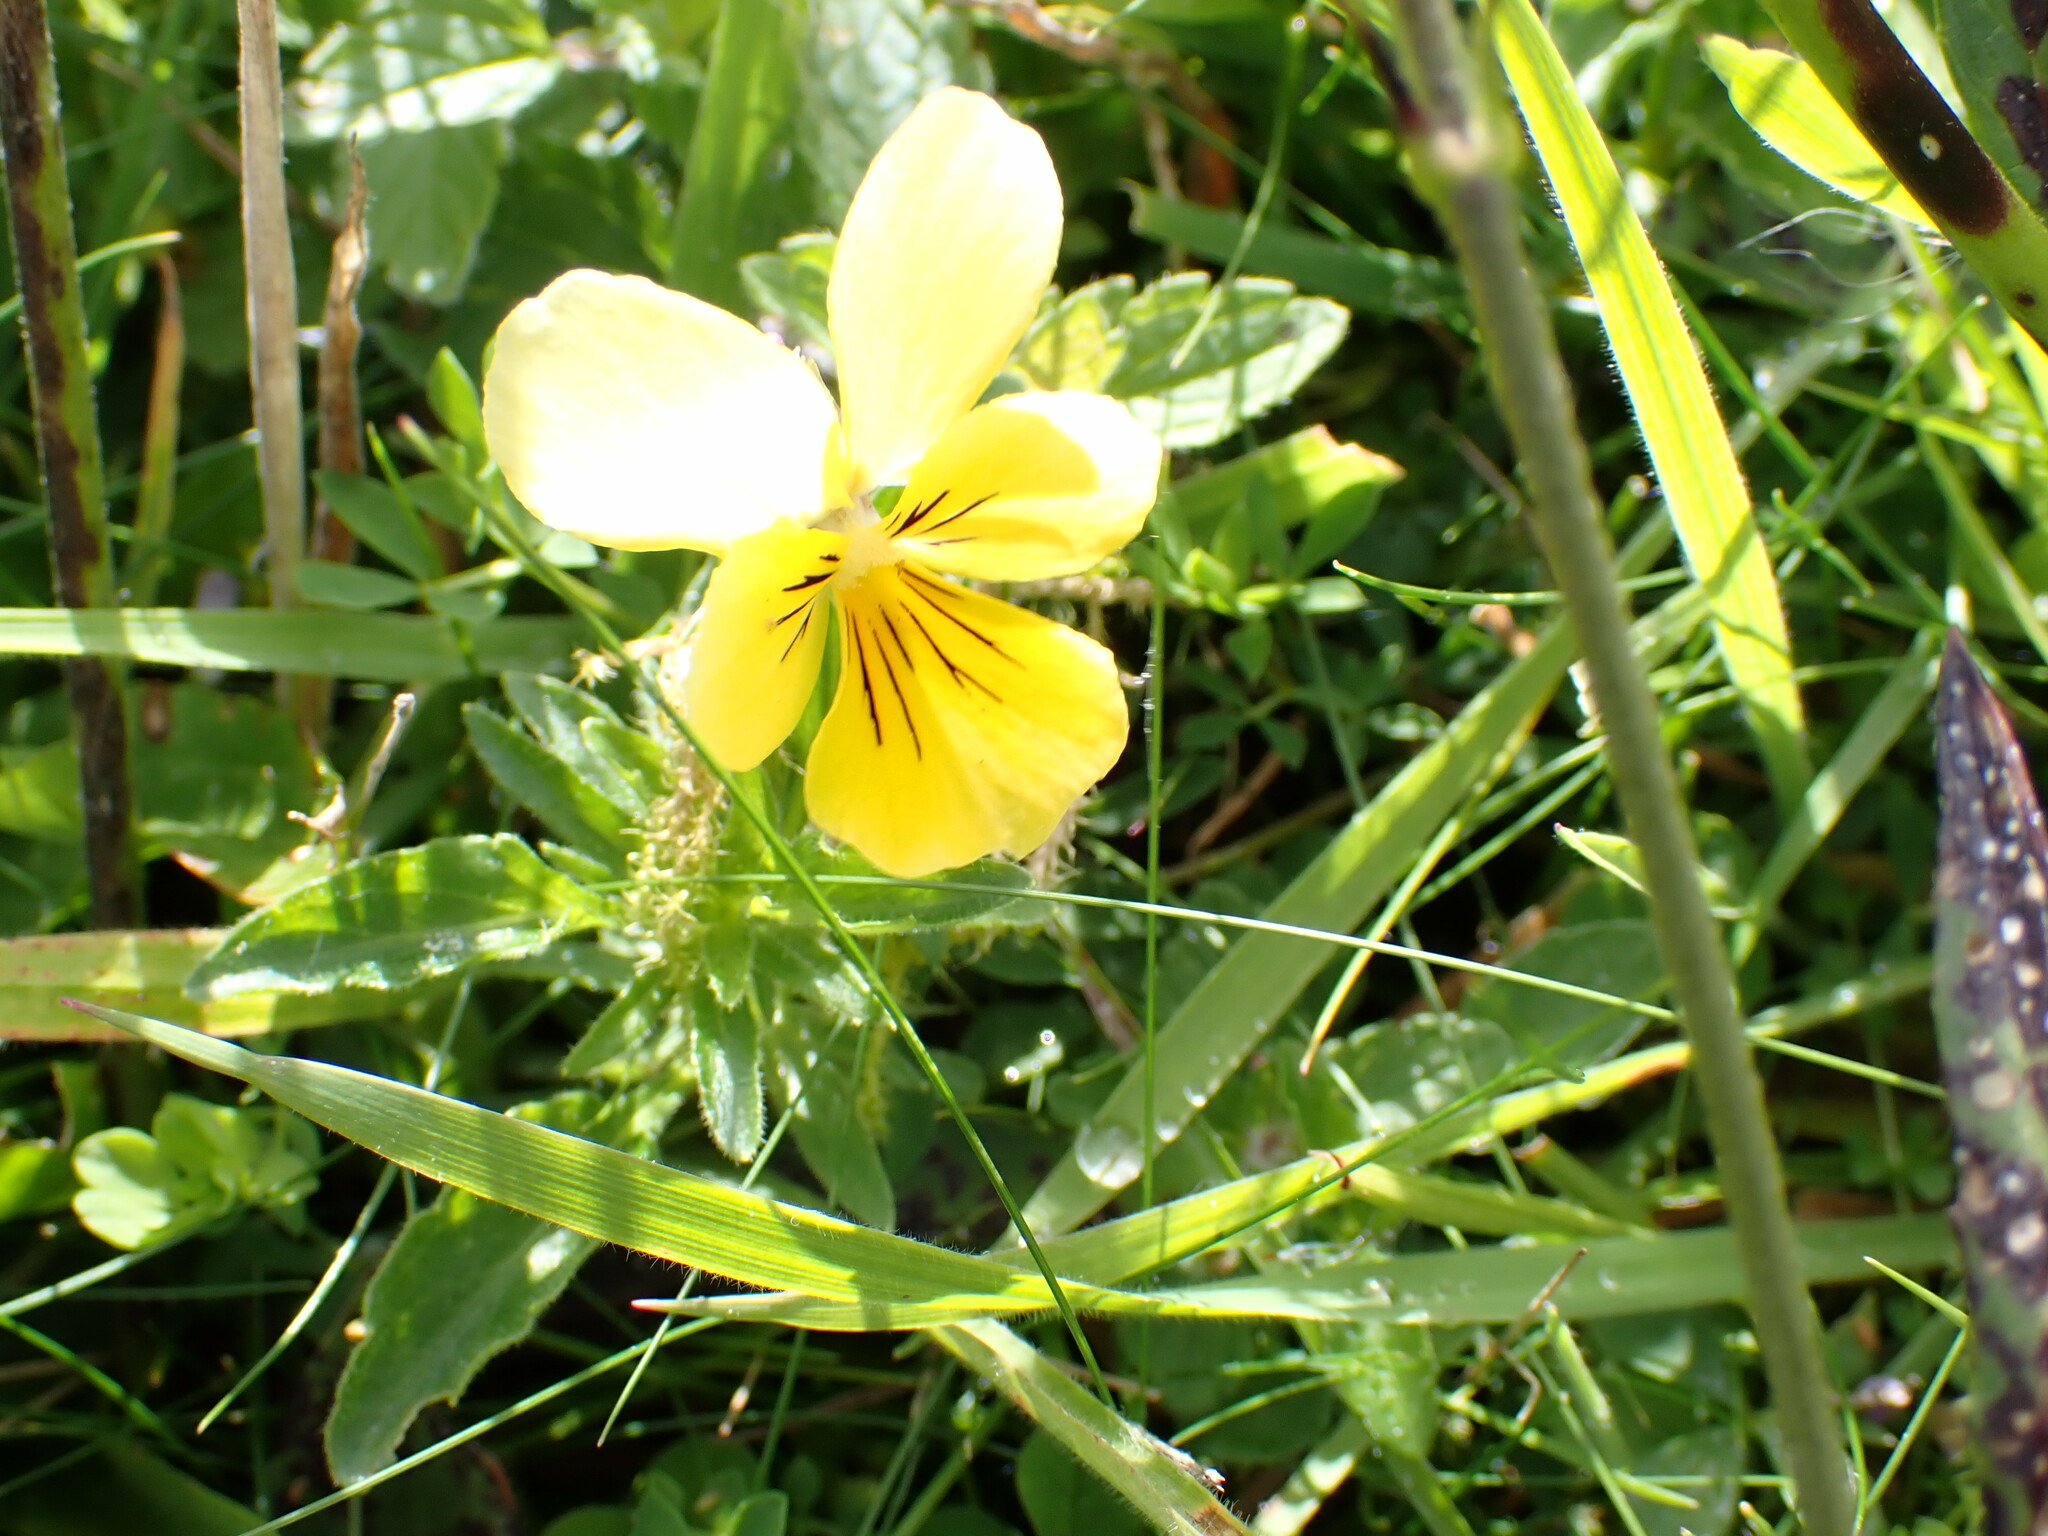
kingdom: Plantae
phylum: Tracheophyta
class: Magnoliopsida
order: Malpighiales
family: Violaceae
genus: Viola
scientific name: Viola lutea
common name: Mountain pansy
